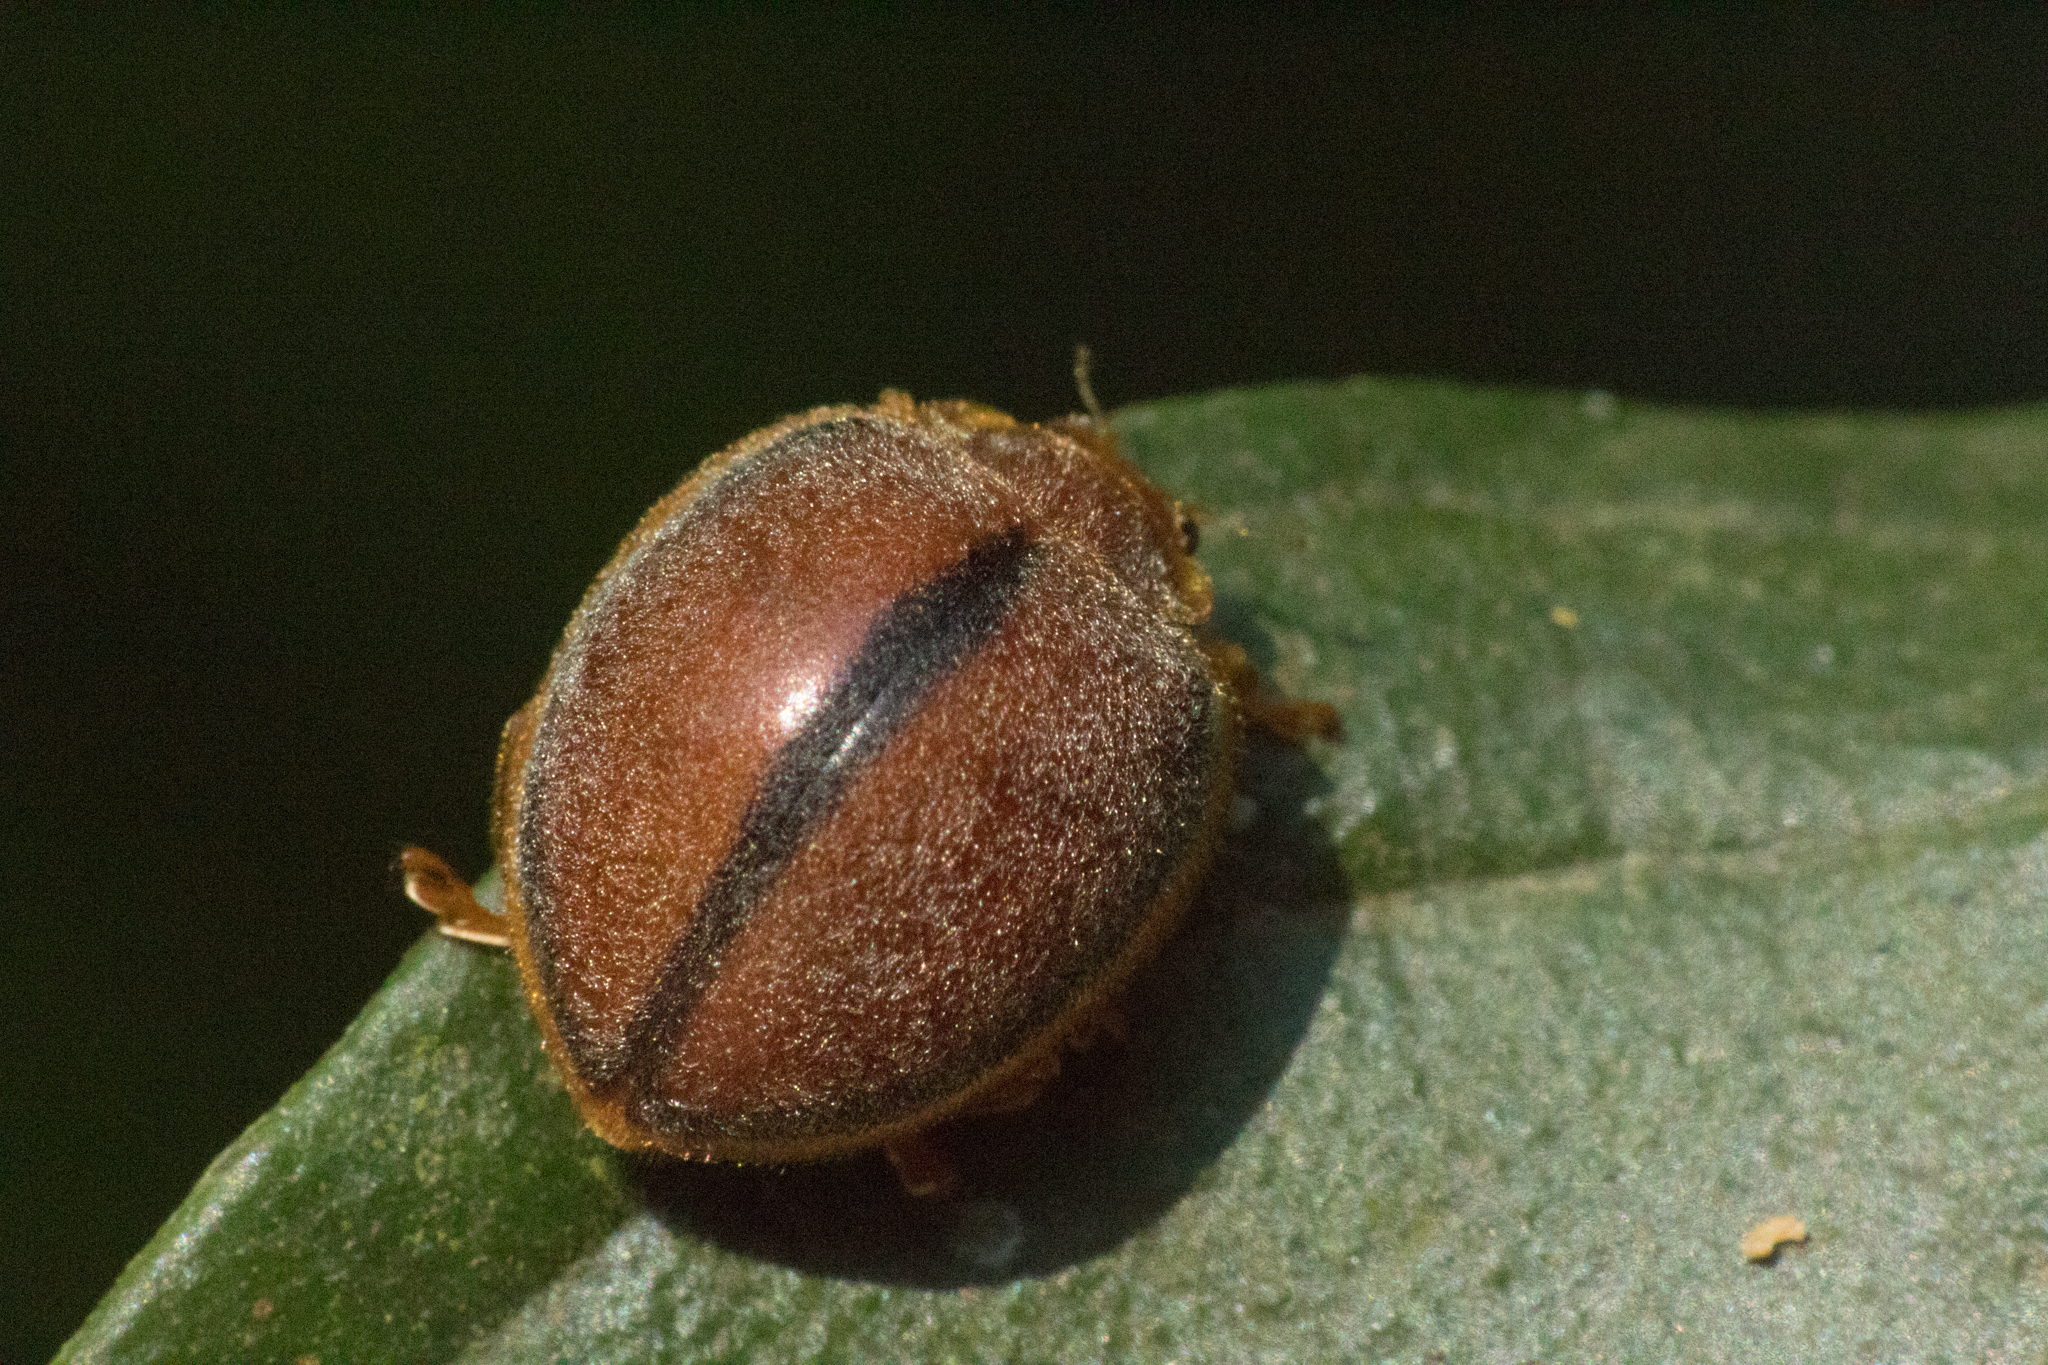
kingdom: Animalia
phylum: Arthropoda
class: Insecta
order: Coleoptera
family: Coccinellidae
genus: Epilachna
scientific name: Epilachna cacica
